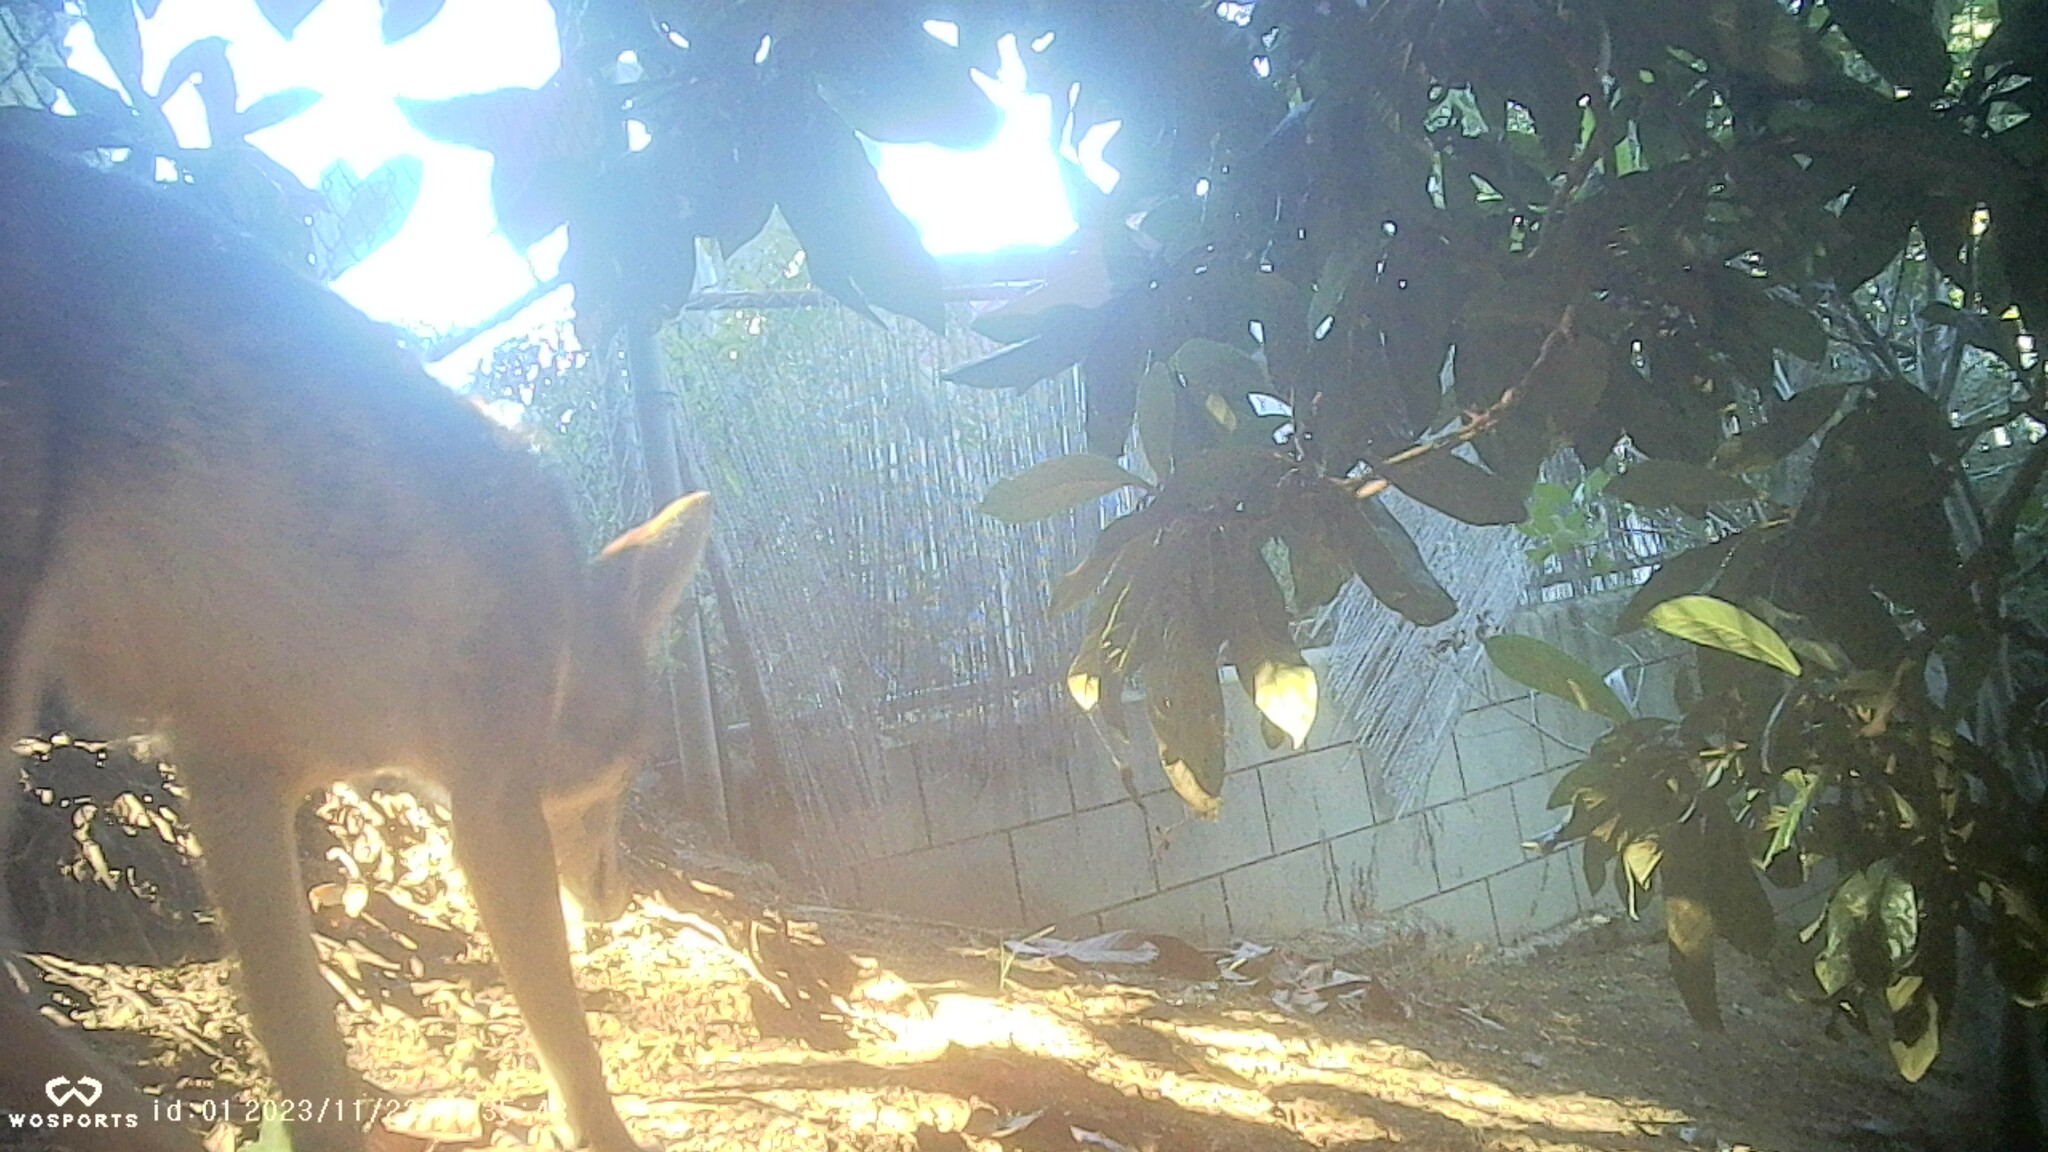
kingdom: Animalia
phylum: Chordata
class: Mammalia
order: Carnivora
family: Canidae
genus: Canis
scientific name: Canis latrans
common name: Coyote
